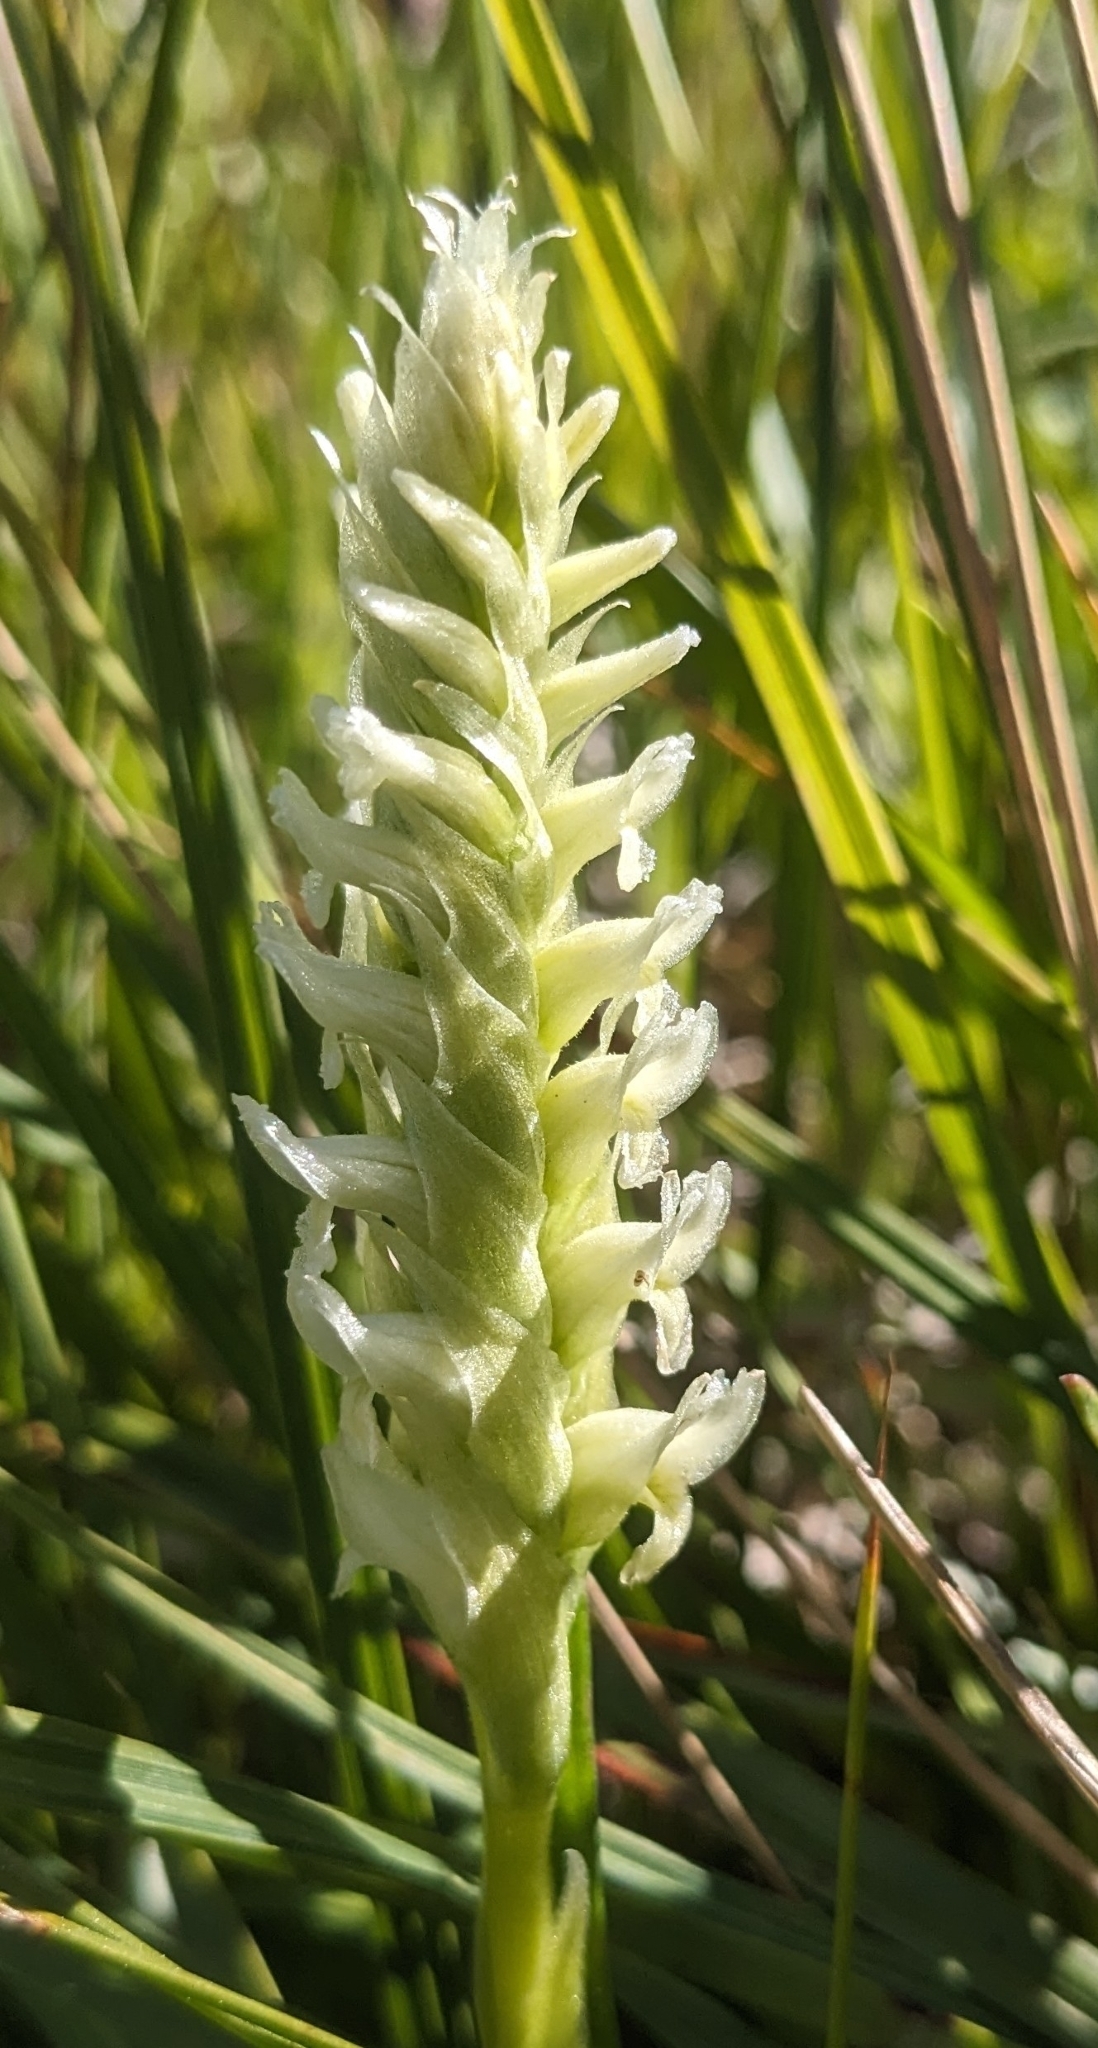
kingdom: Plantae
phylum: Tracheophyta
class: Liliopsida
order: Asparagales
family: Orchidaceae
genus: Spiranthes
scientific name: Spiranthes romanzoffiana
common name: Irish lady's-tresses
